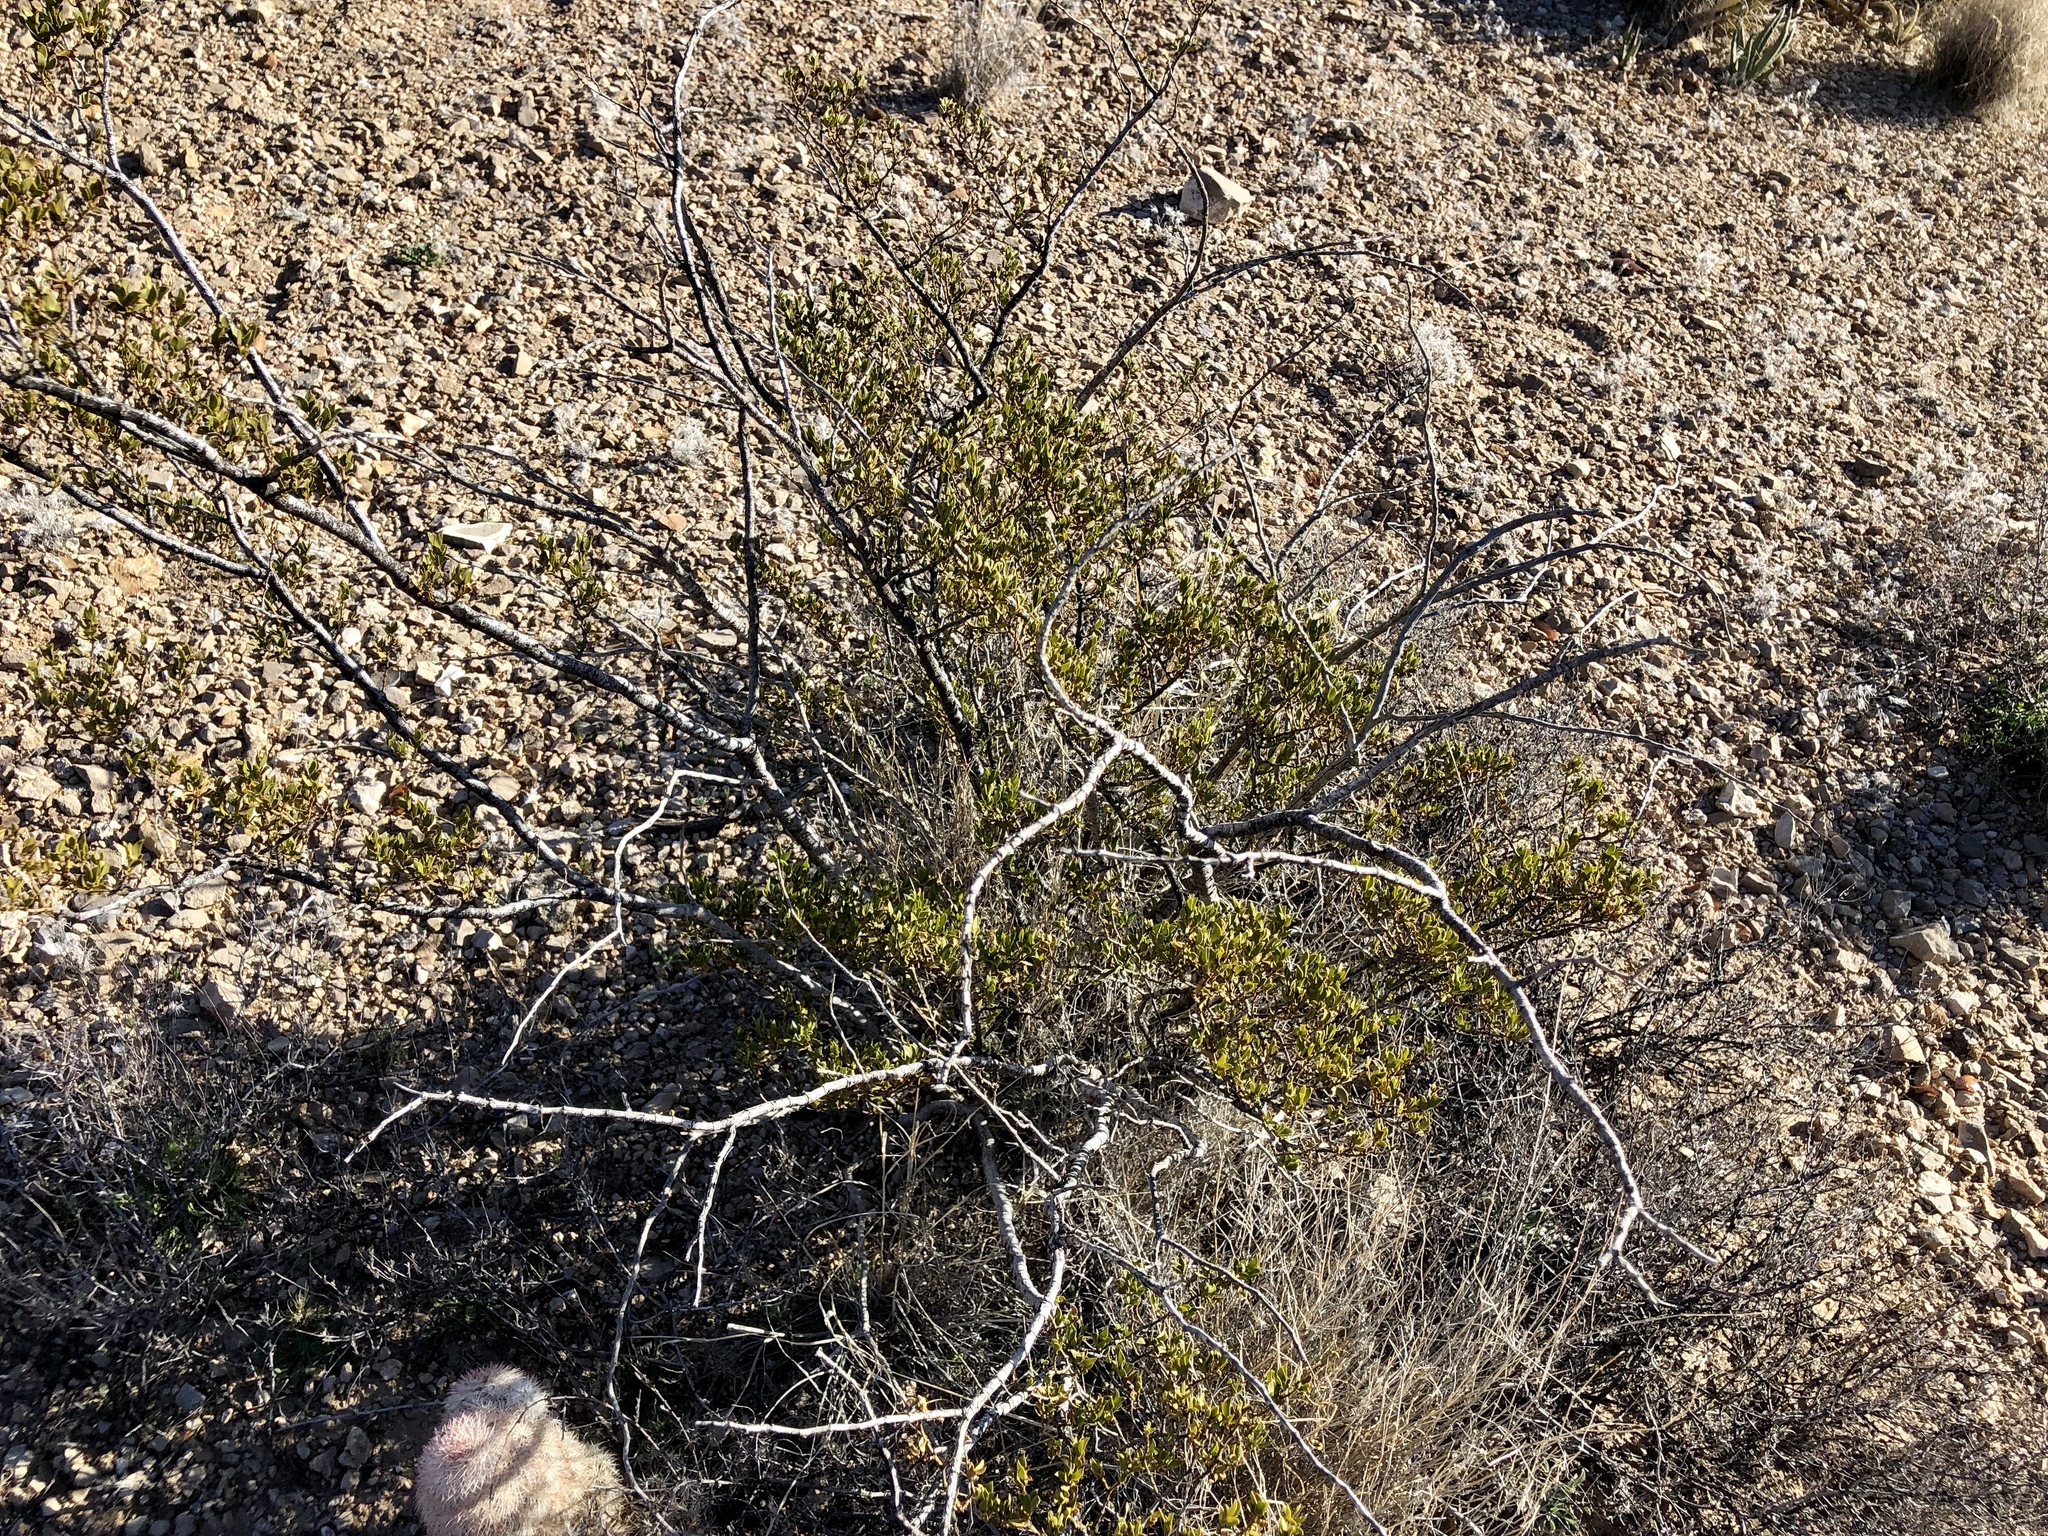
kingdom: Plantae
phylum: Tracheophyta
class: Magnoliopsida
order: Zygophyllales
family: Zygophyllaceae
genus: Larrea
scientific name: Larrea tridentata
